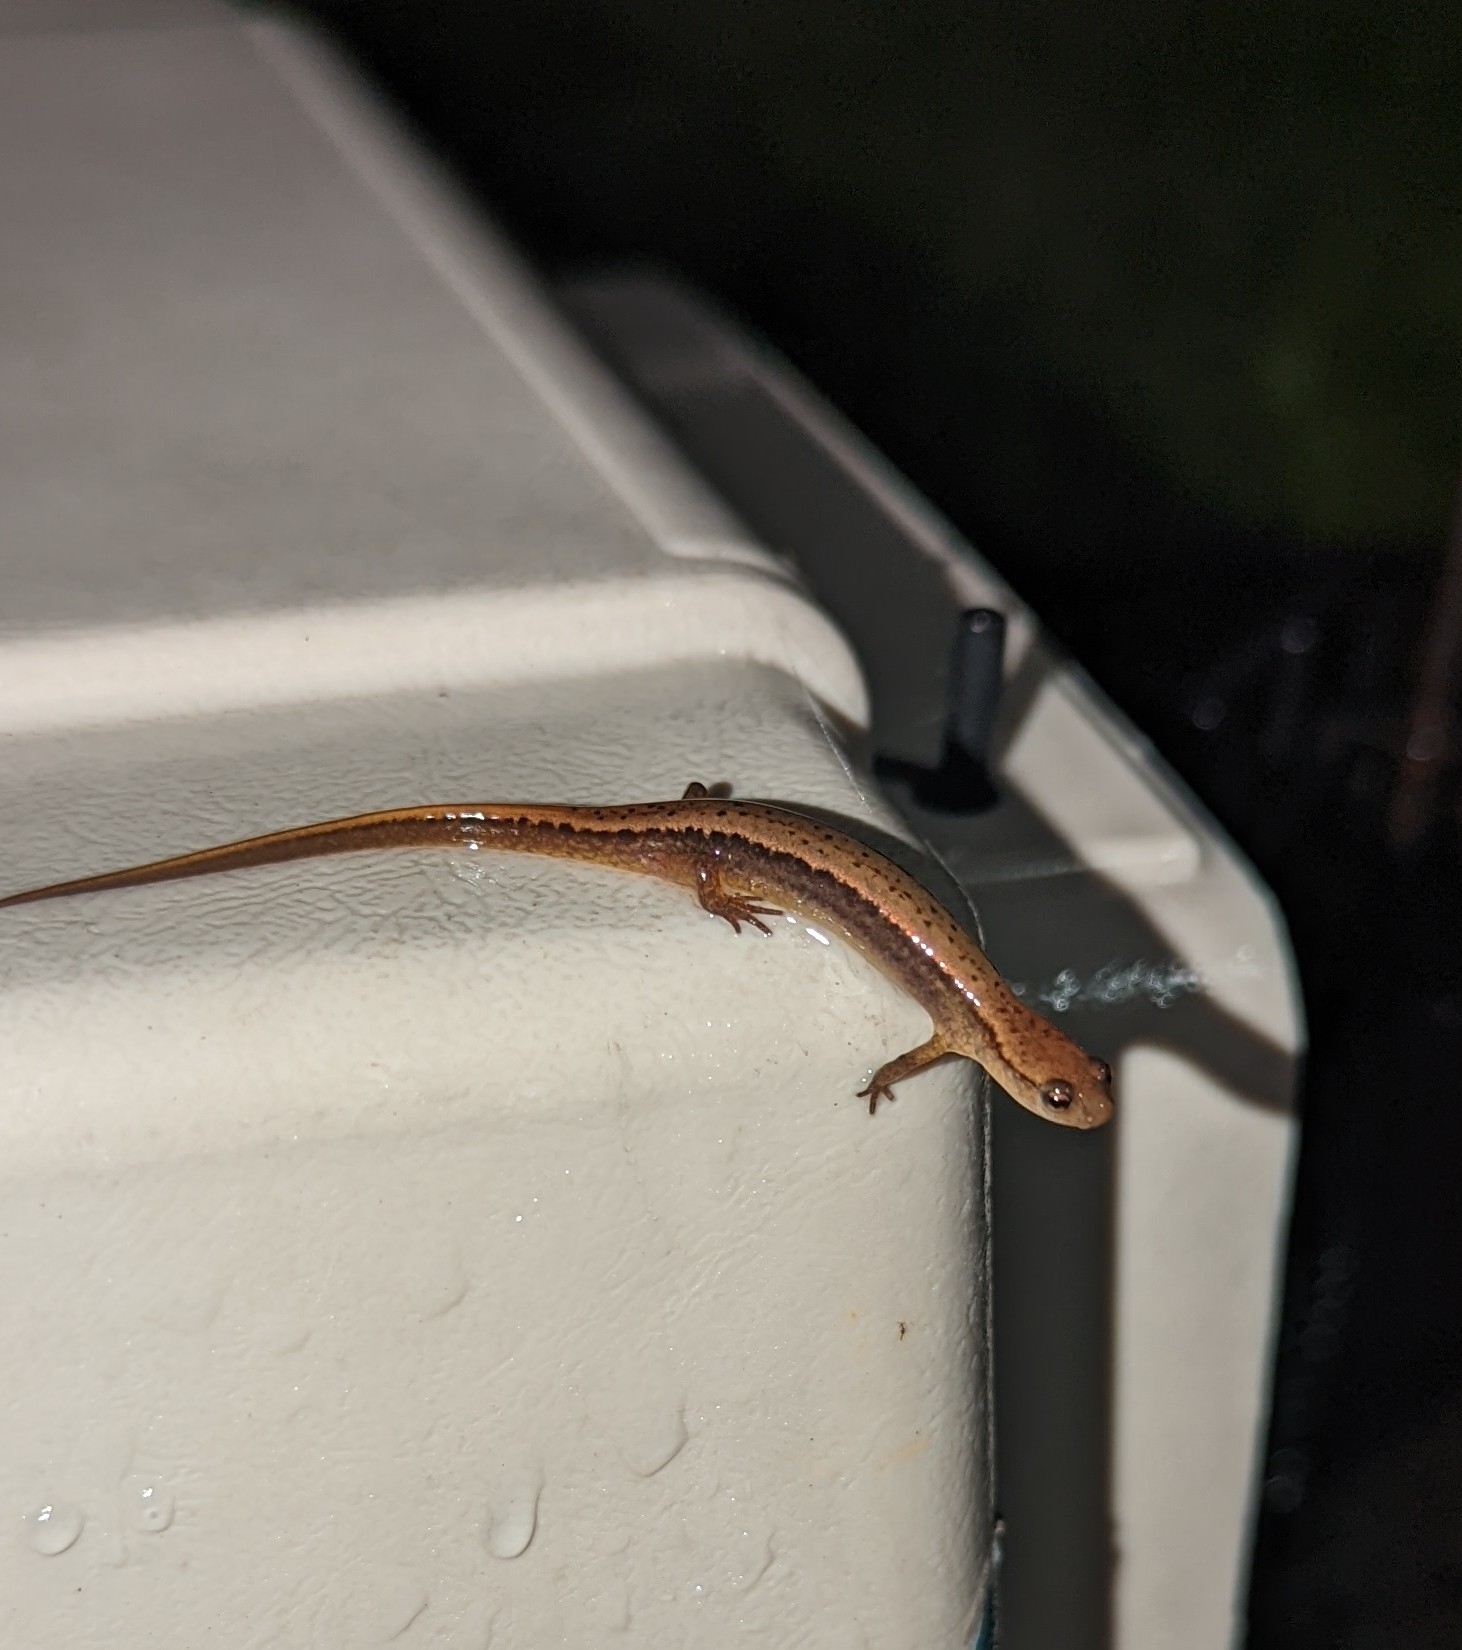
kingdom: Animalia
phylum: Chordata
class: Amphibia
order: Caudata
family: Plethodontidae
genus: Eurycea
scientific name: Eurycea bislineata
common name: Northern two-lined salamander
